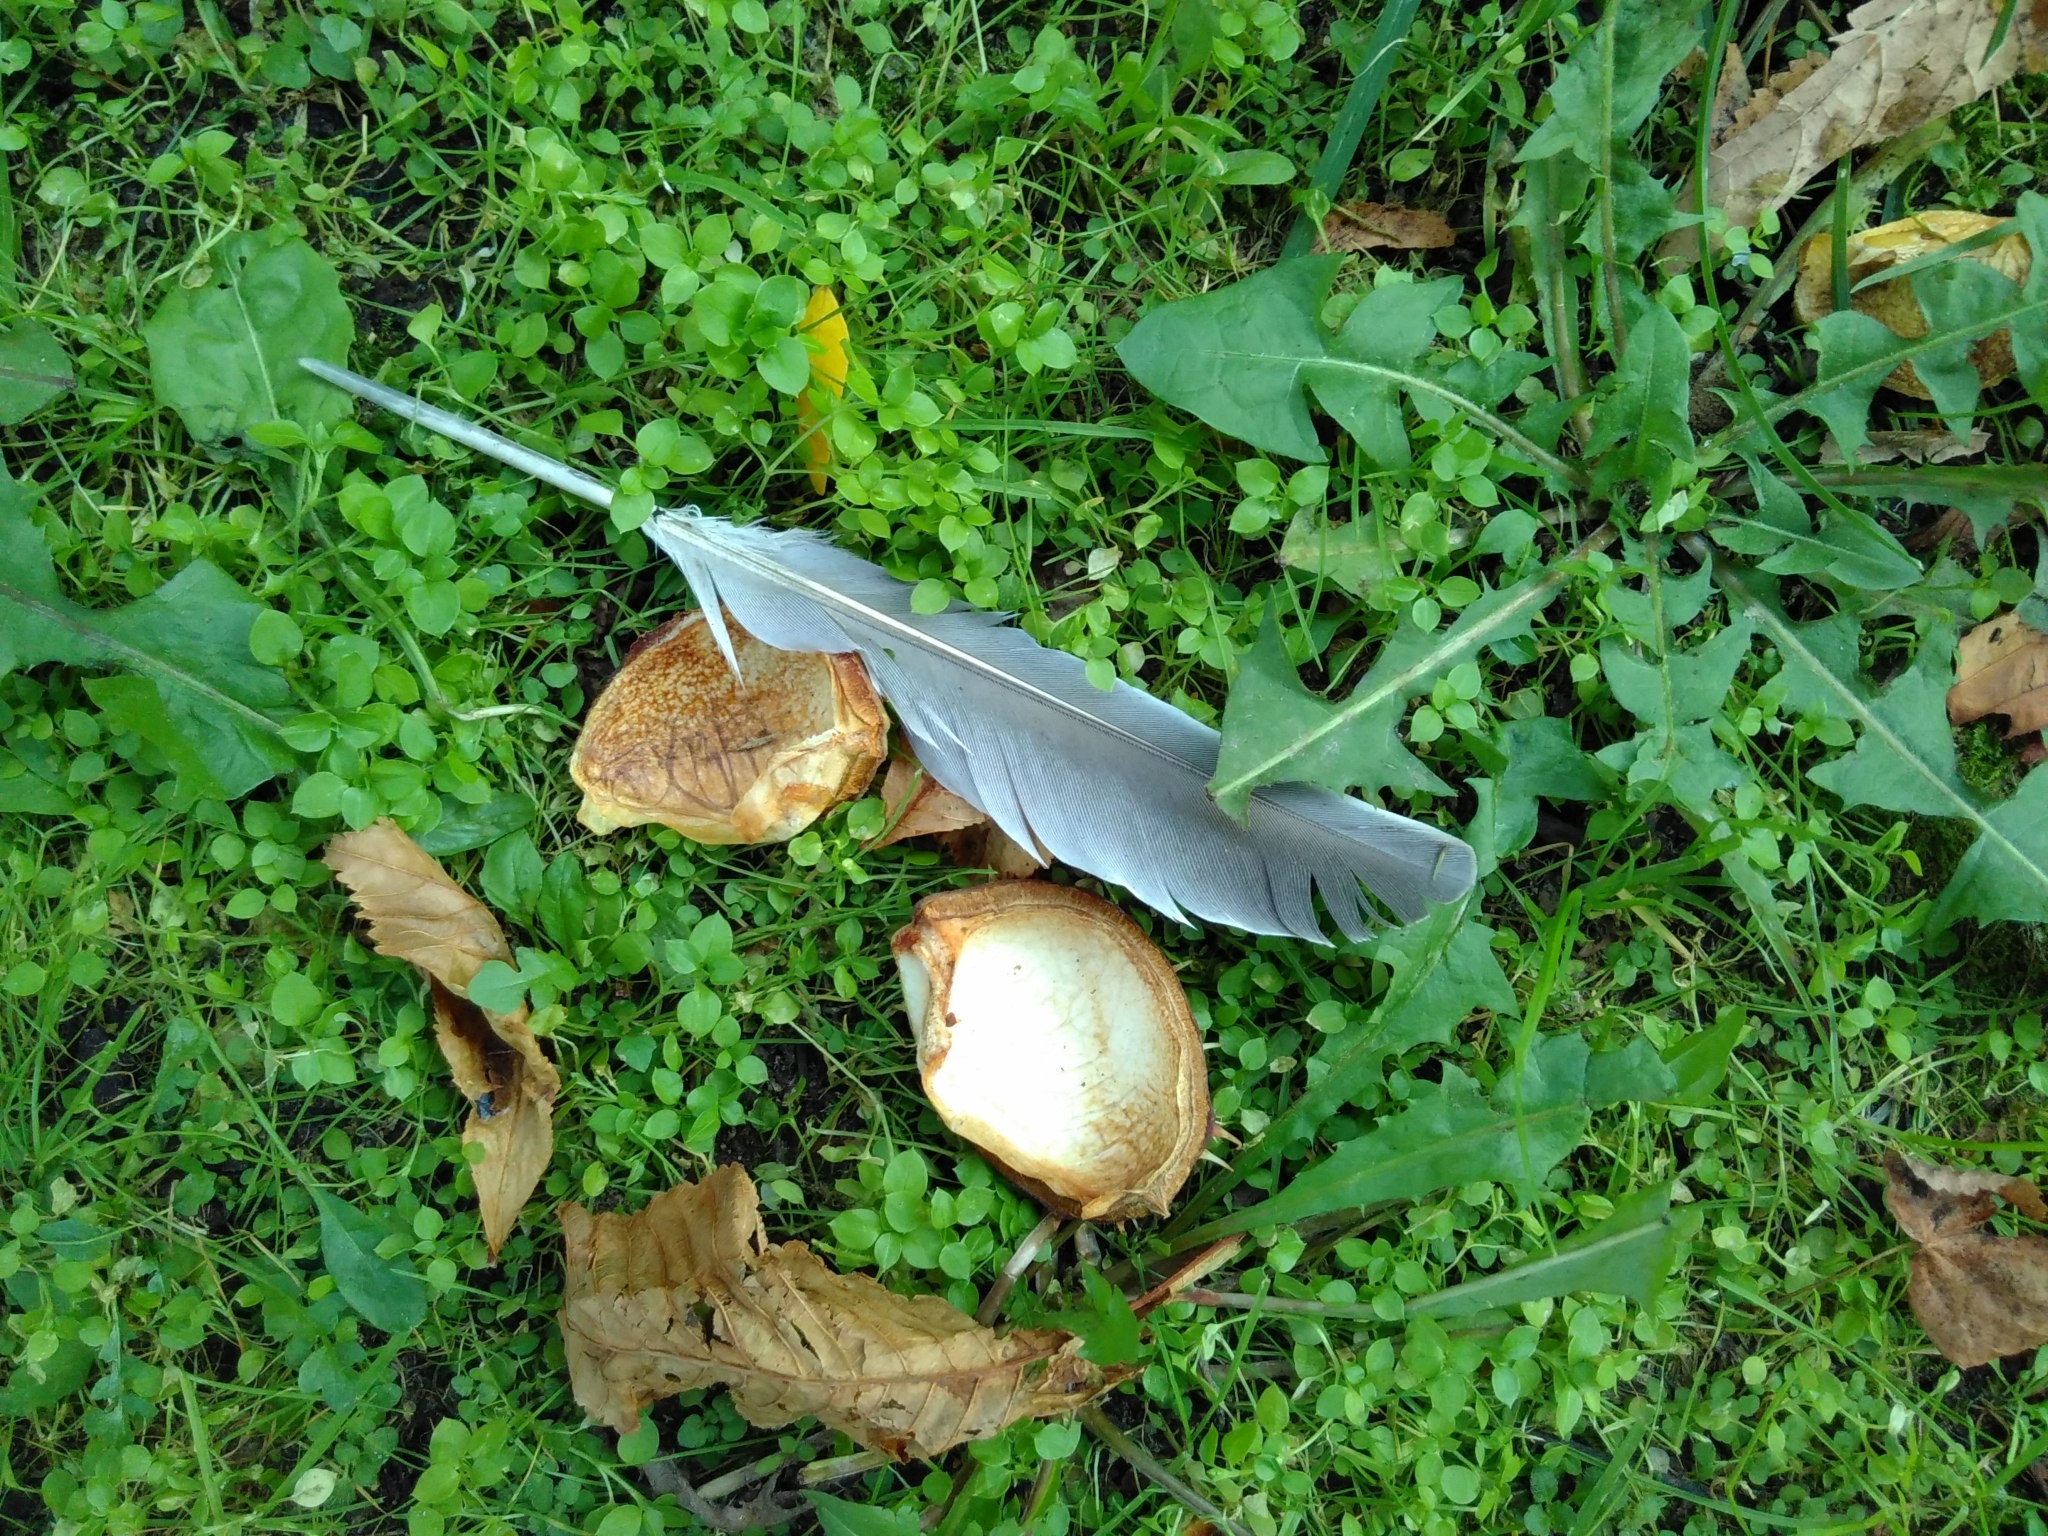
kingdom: Animalia
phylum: Chordata
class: Aves
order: Columbiformes
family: Columbidae
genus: Columba
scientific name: Columba palumbus
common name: Common wood pigeon
